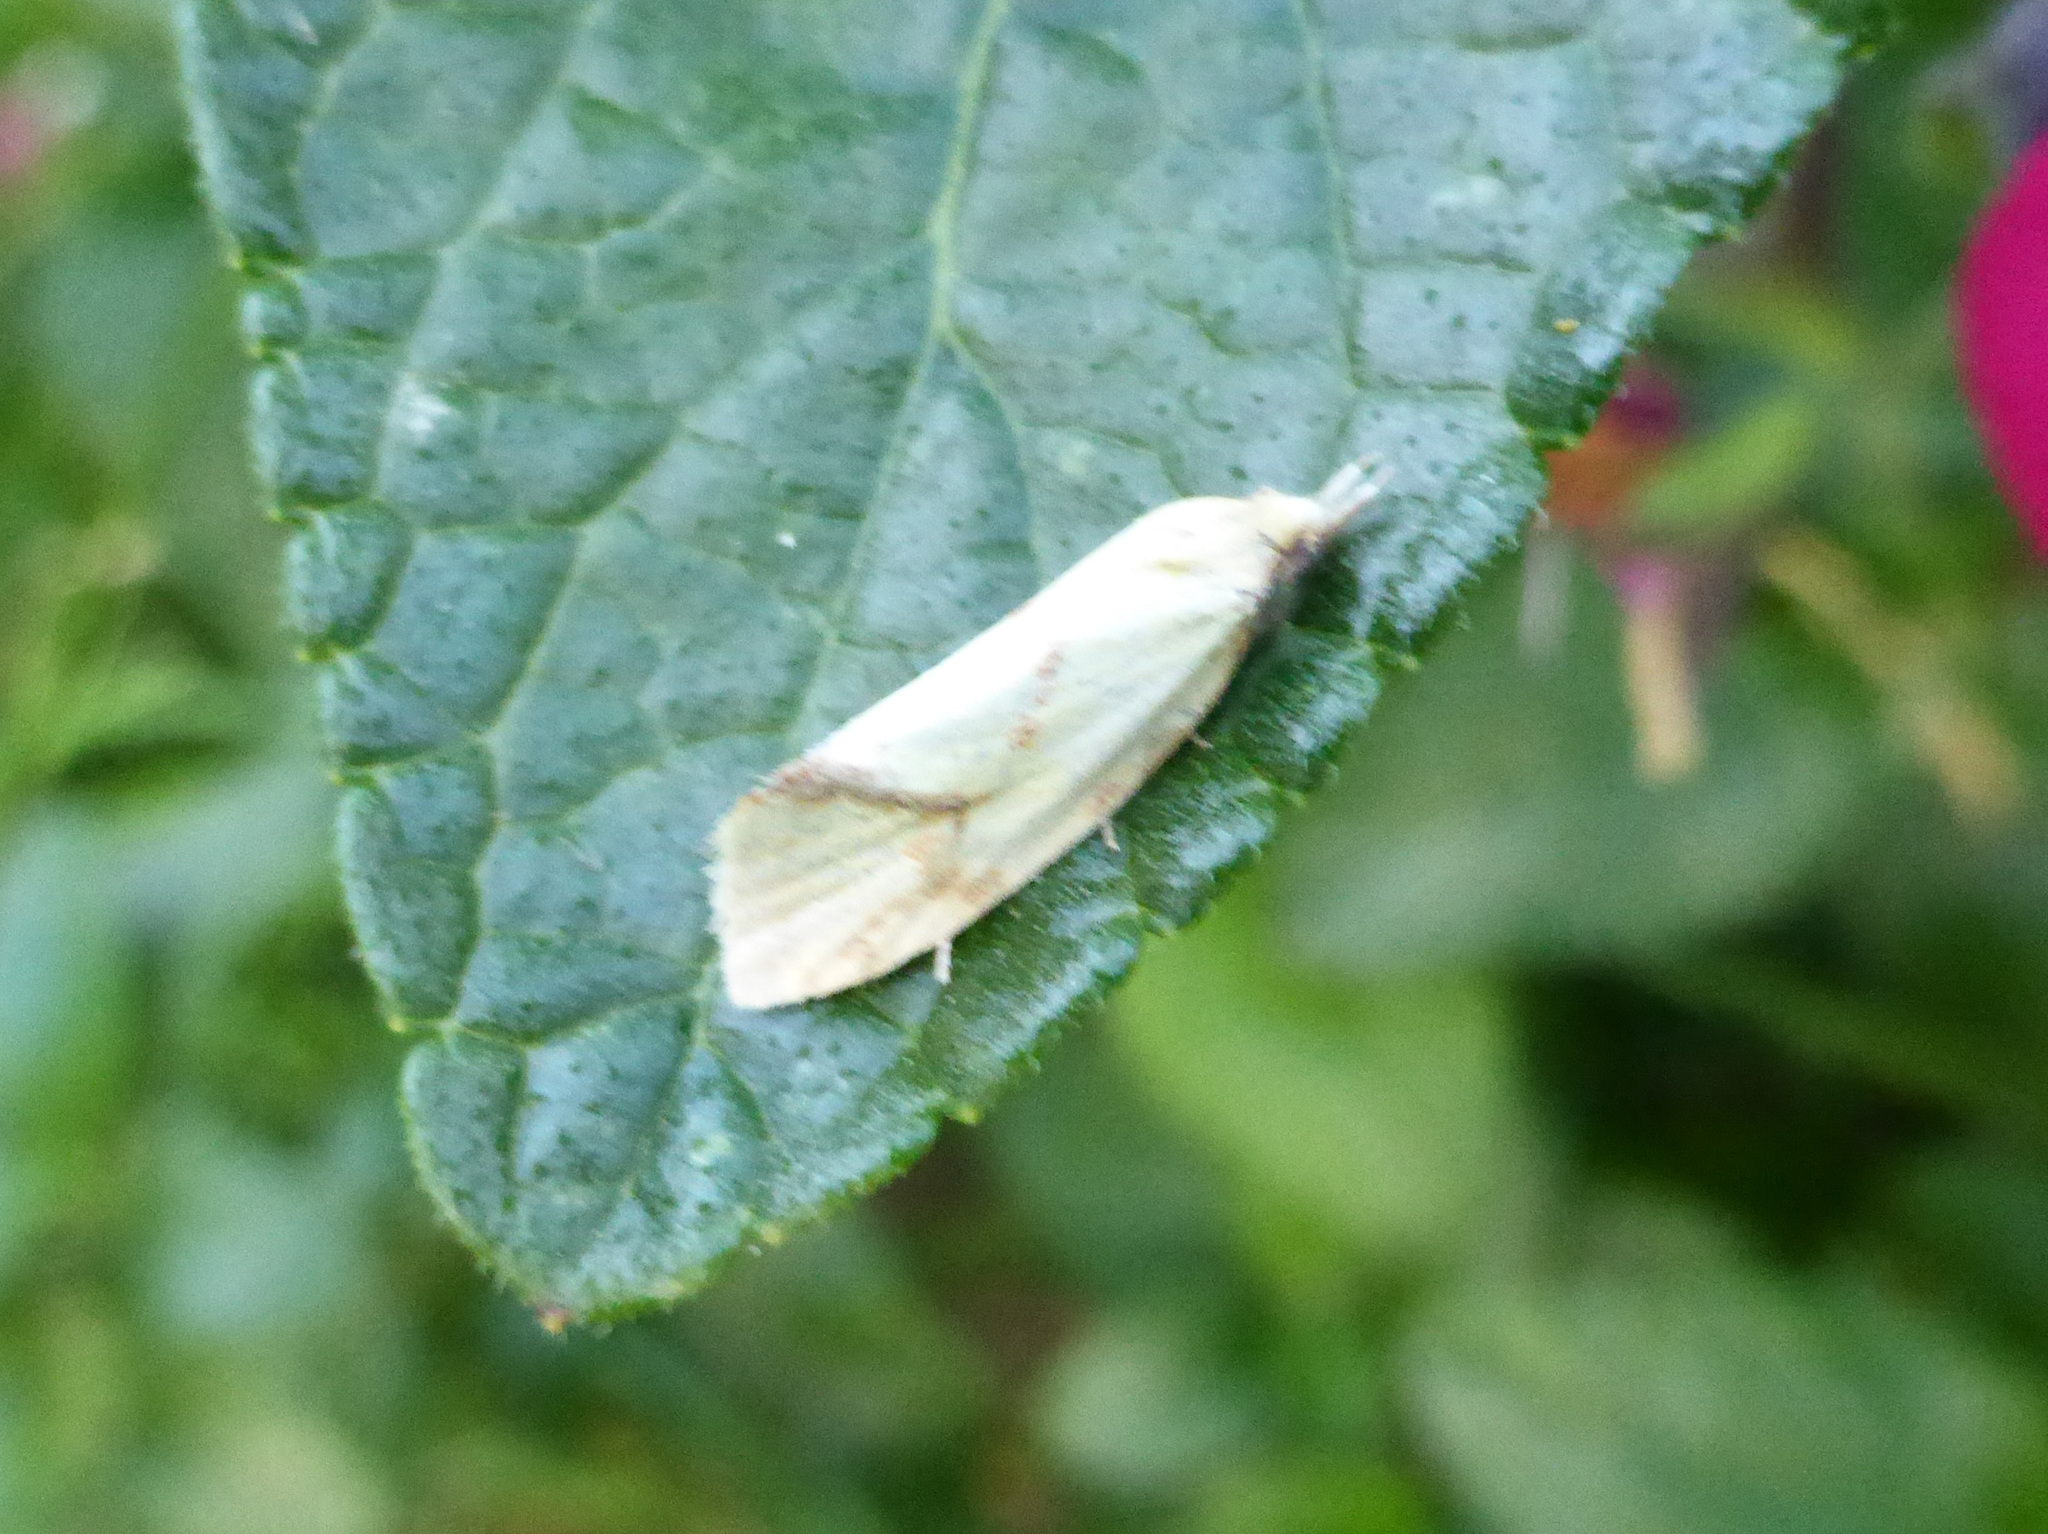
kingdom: Animalia
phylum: Arthropoda
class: Insecta
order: Lepidoptera
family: Tortricidae
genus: Agapeta
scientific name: Agapeta hamana
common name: Common yellow conch
